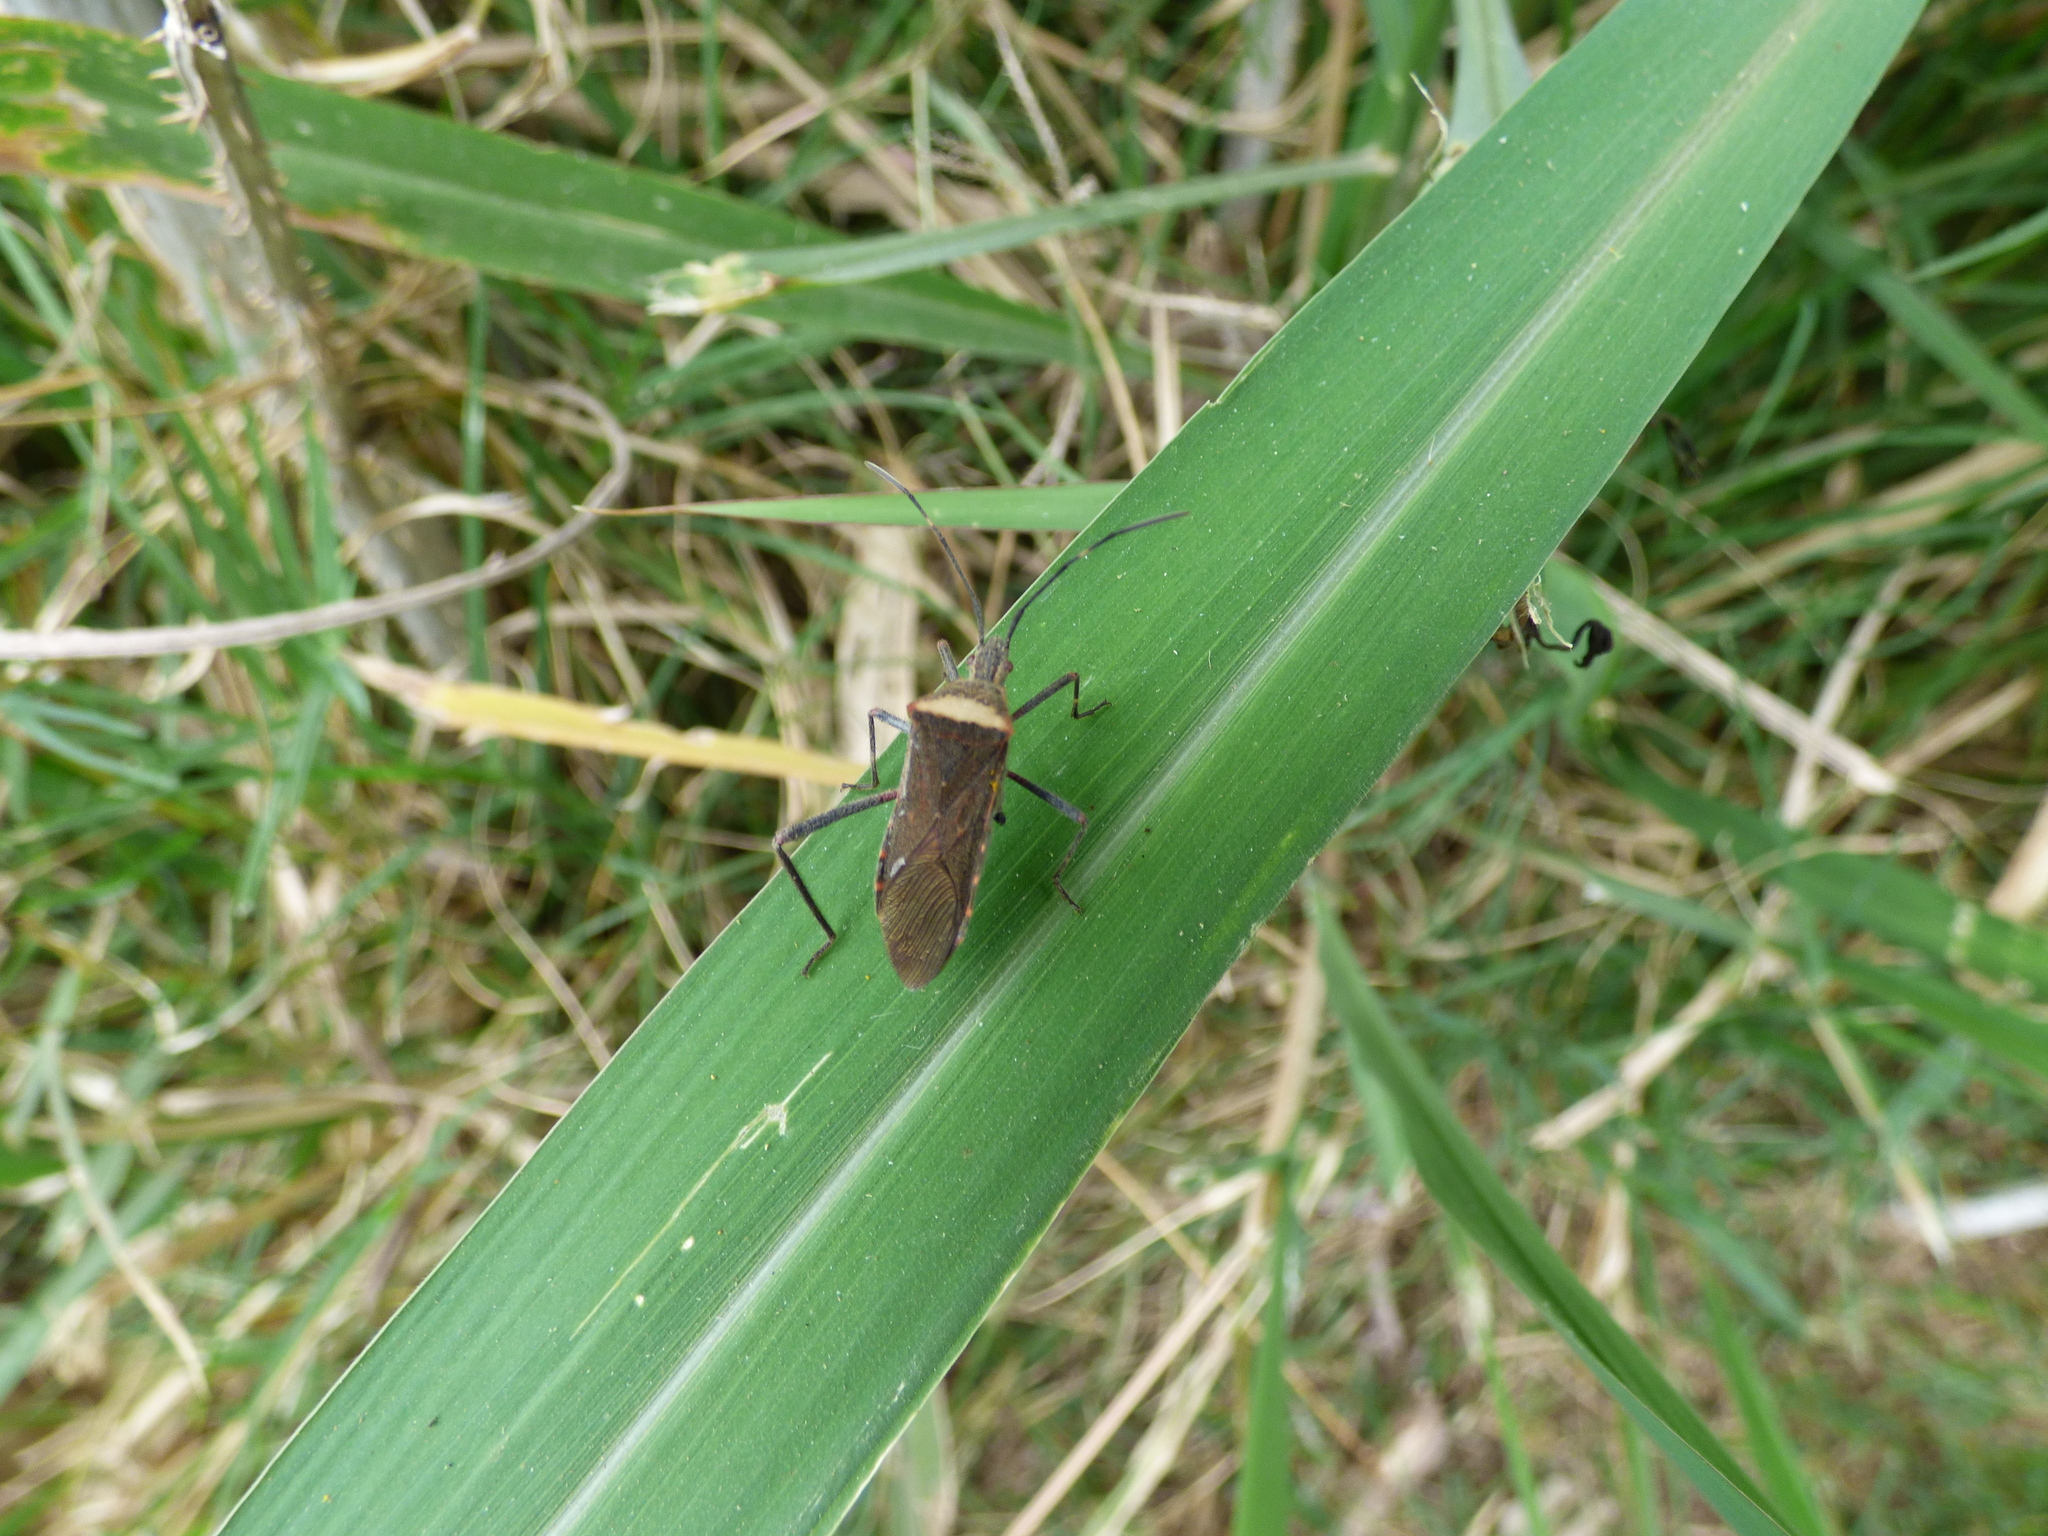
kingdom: Animalia
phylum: Arthropoda
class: Insecta
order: Hemiptera
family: Coreidae
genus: Phthiacnemia
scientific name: Phthiacnemia picta
